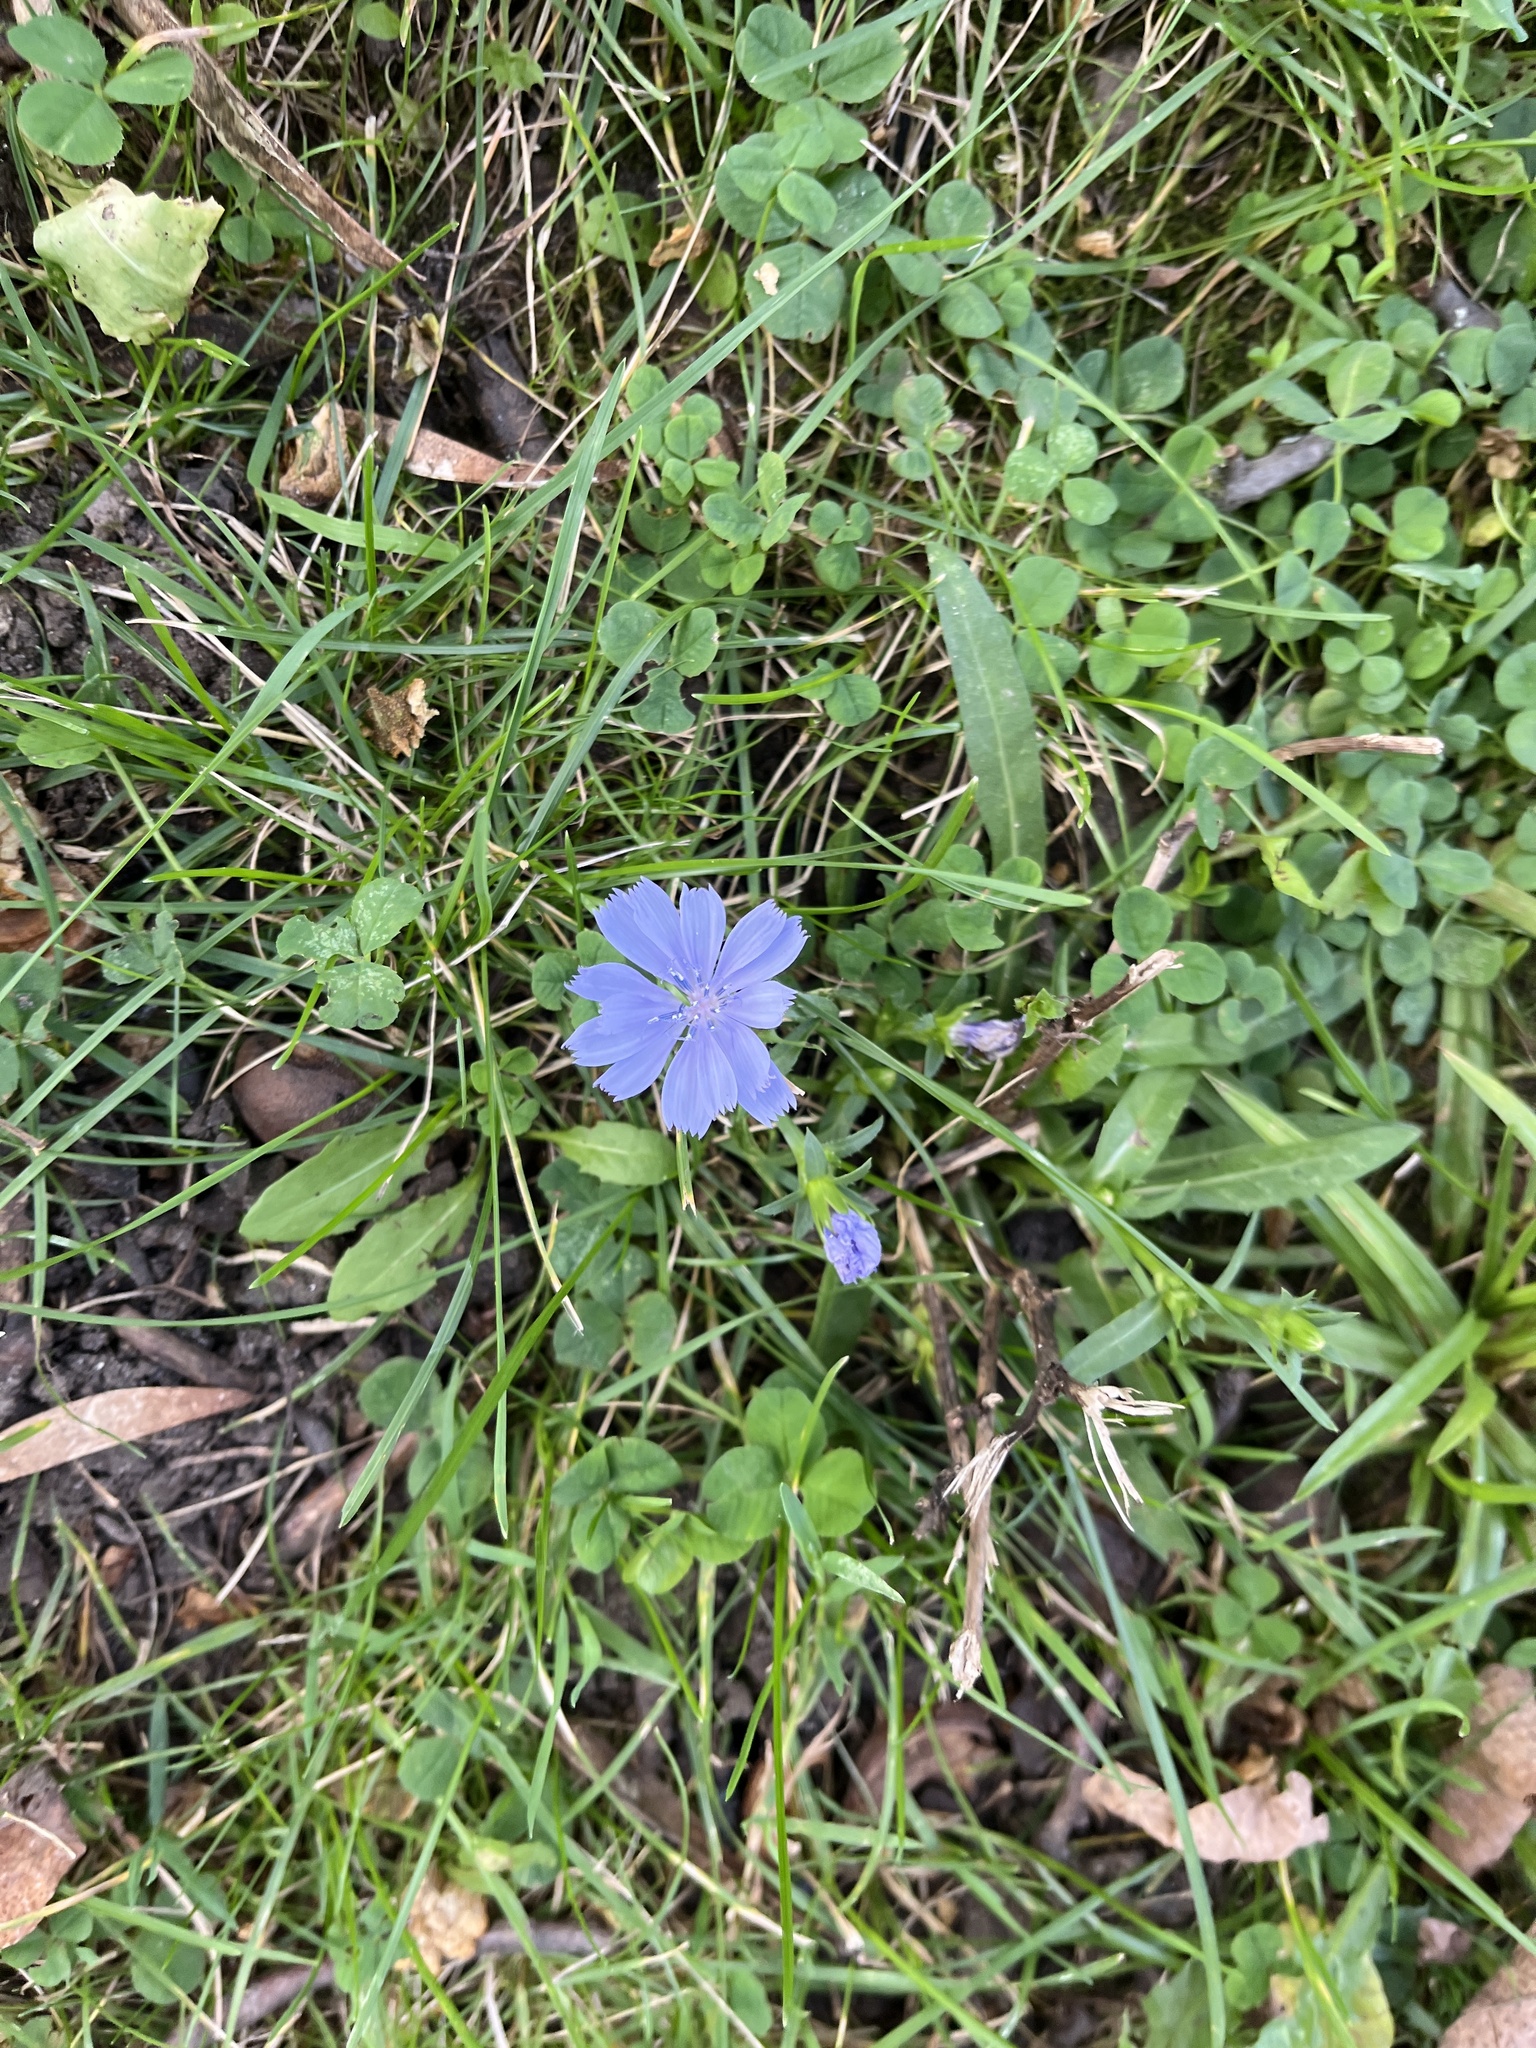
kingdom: Plantae
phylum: Tracheophyta
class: Magnoliopsida
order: Asterales
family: Asteraceae
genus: Cichorium
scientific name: Cichorium intybus
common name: Chicory
